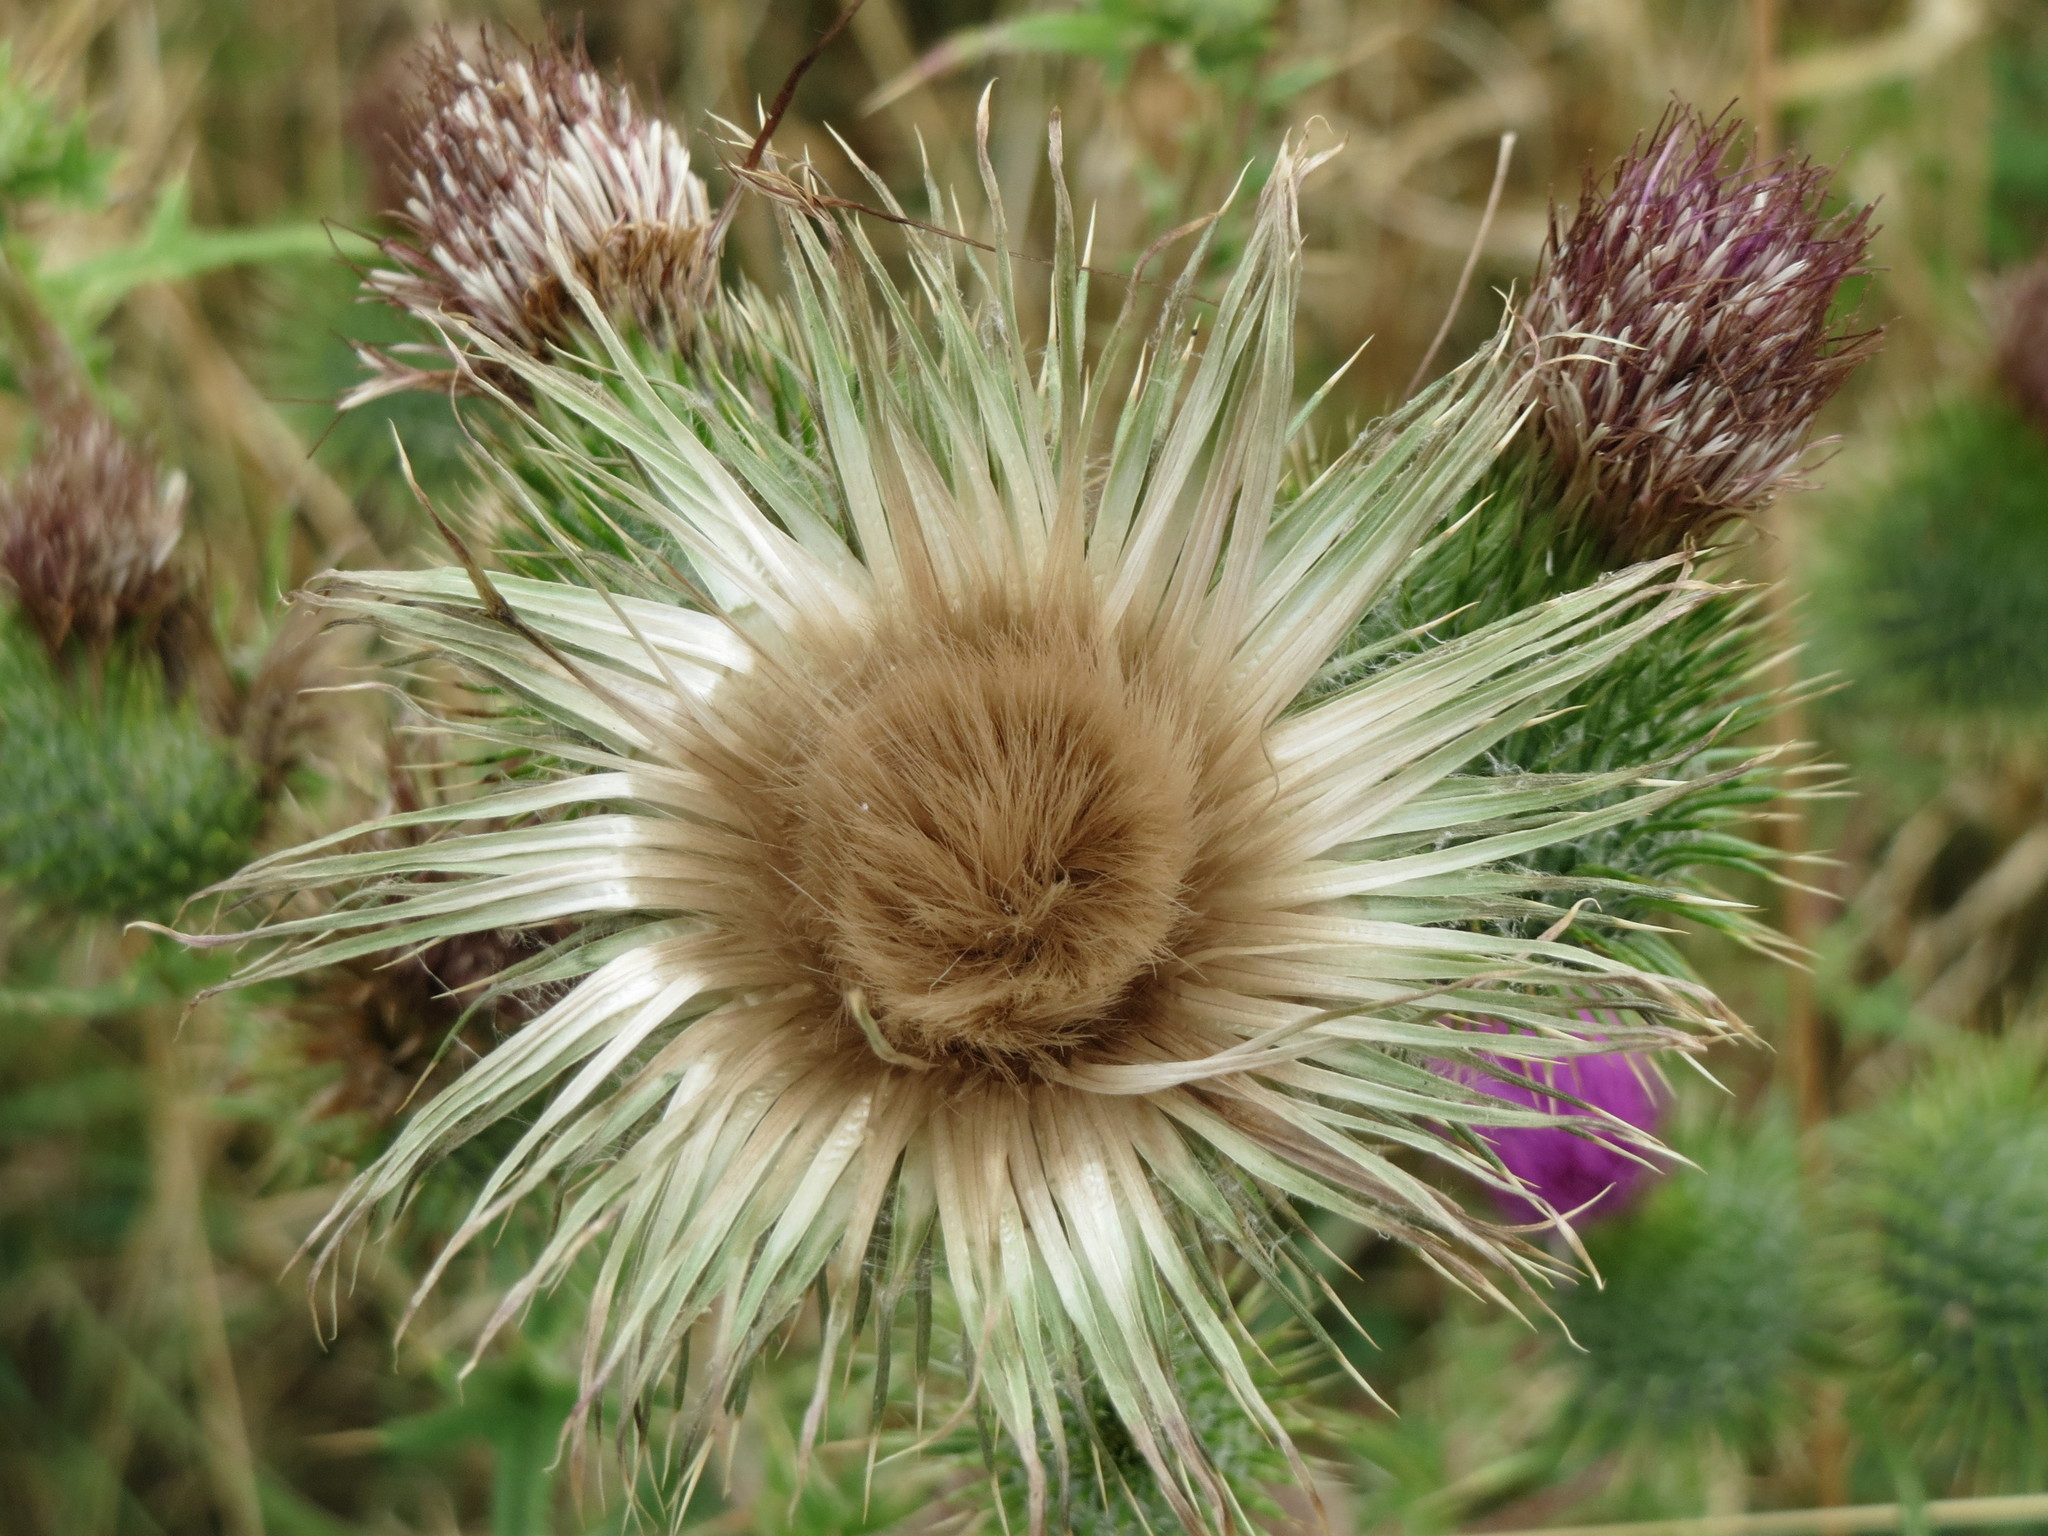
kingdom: Plantae
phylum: Tracheophyta
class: Magnoliopsida
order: Asterales
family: Asteraceae
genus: Cirsium
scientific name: Cirsium vulgare
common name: Bull thistle
